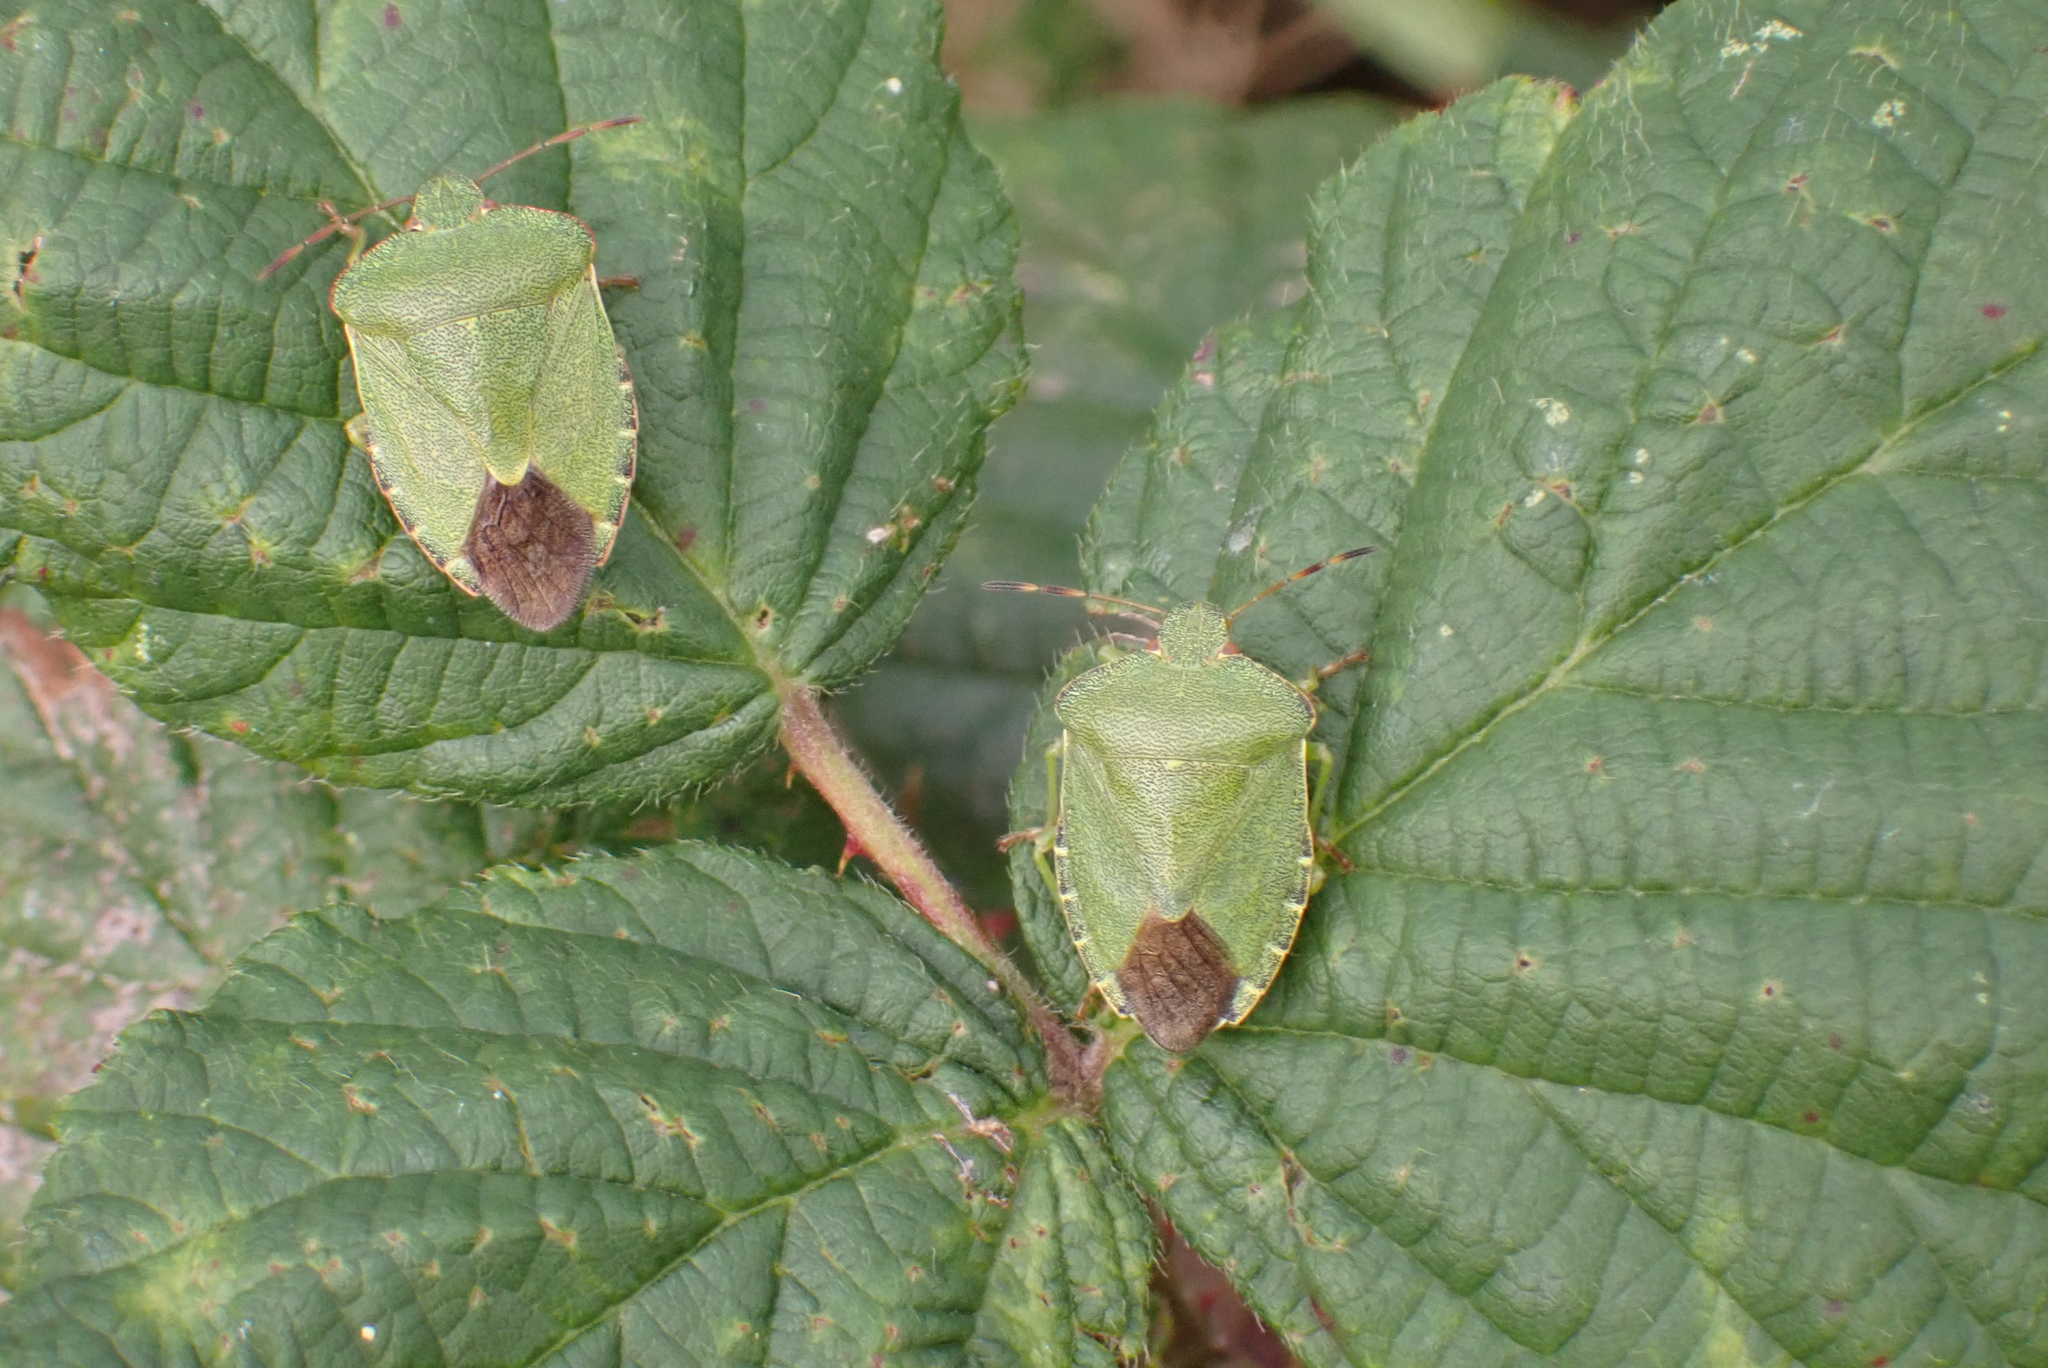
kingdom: Animalia
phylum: Arthropoda
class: Insecta
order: Hemiptera
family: Pentatomidae
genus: Palomena
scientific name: Palomena prasina
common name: Green shieldbug
